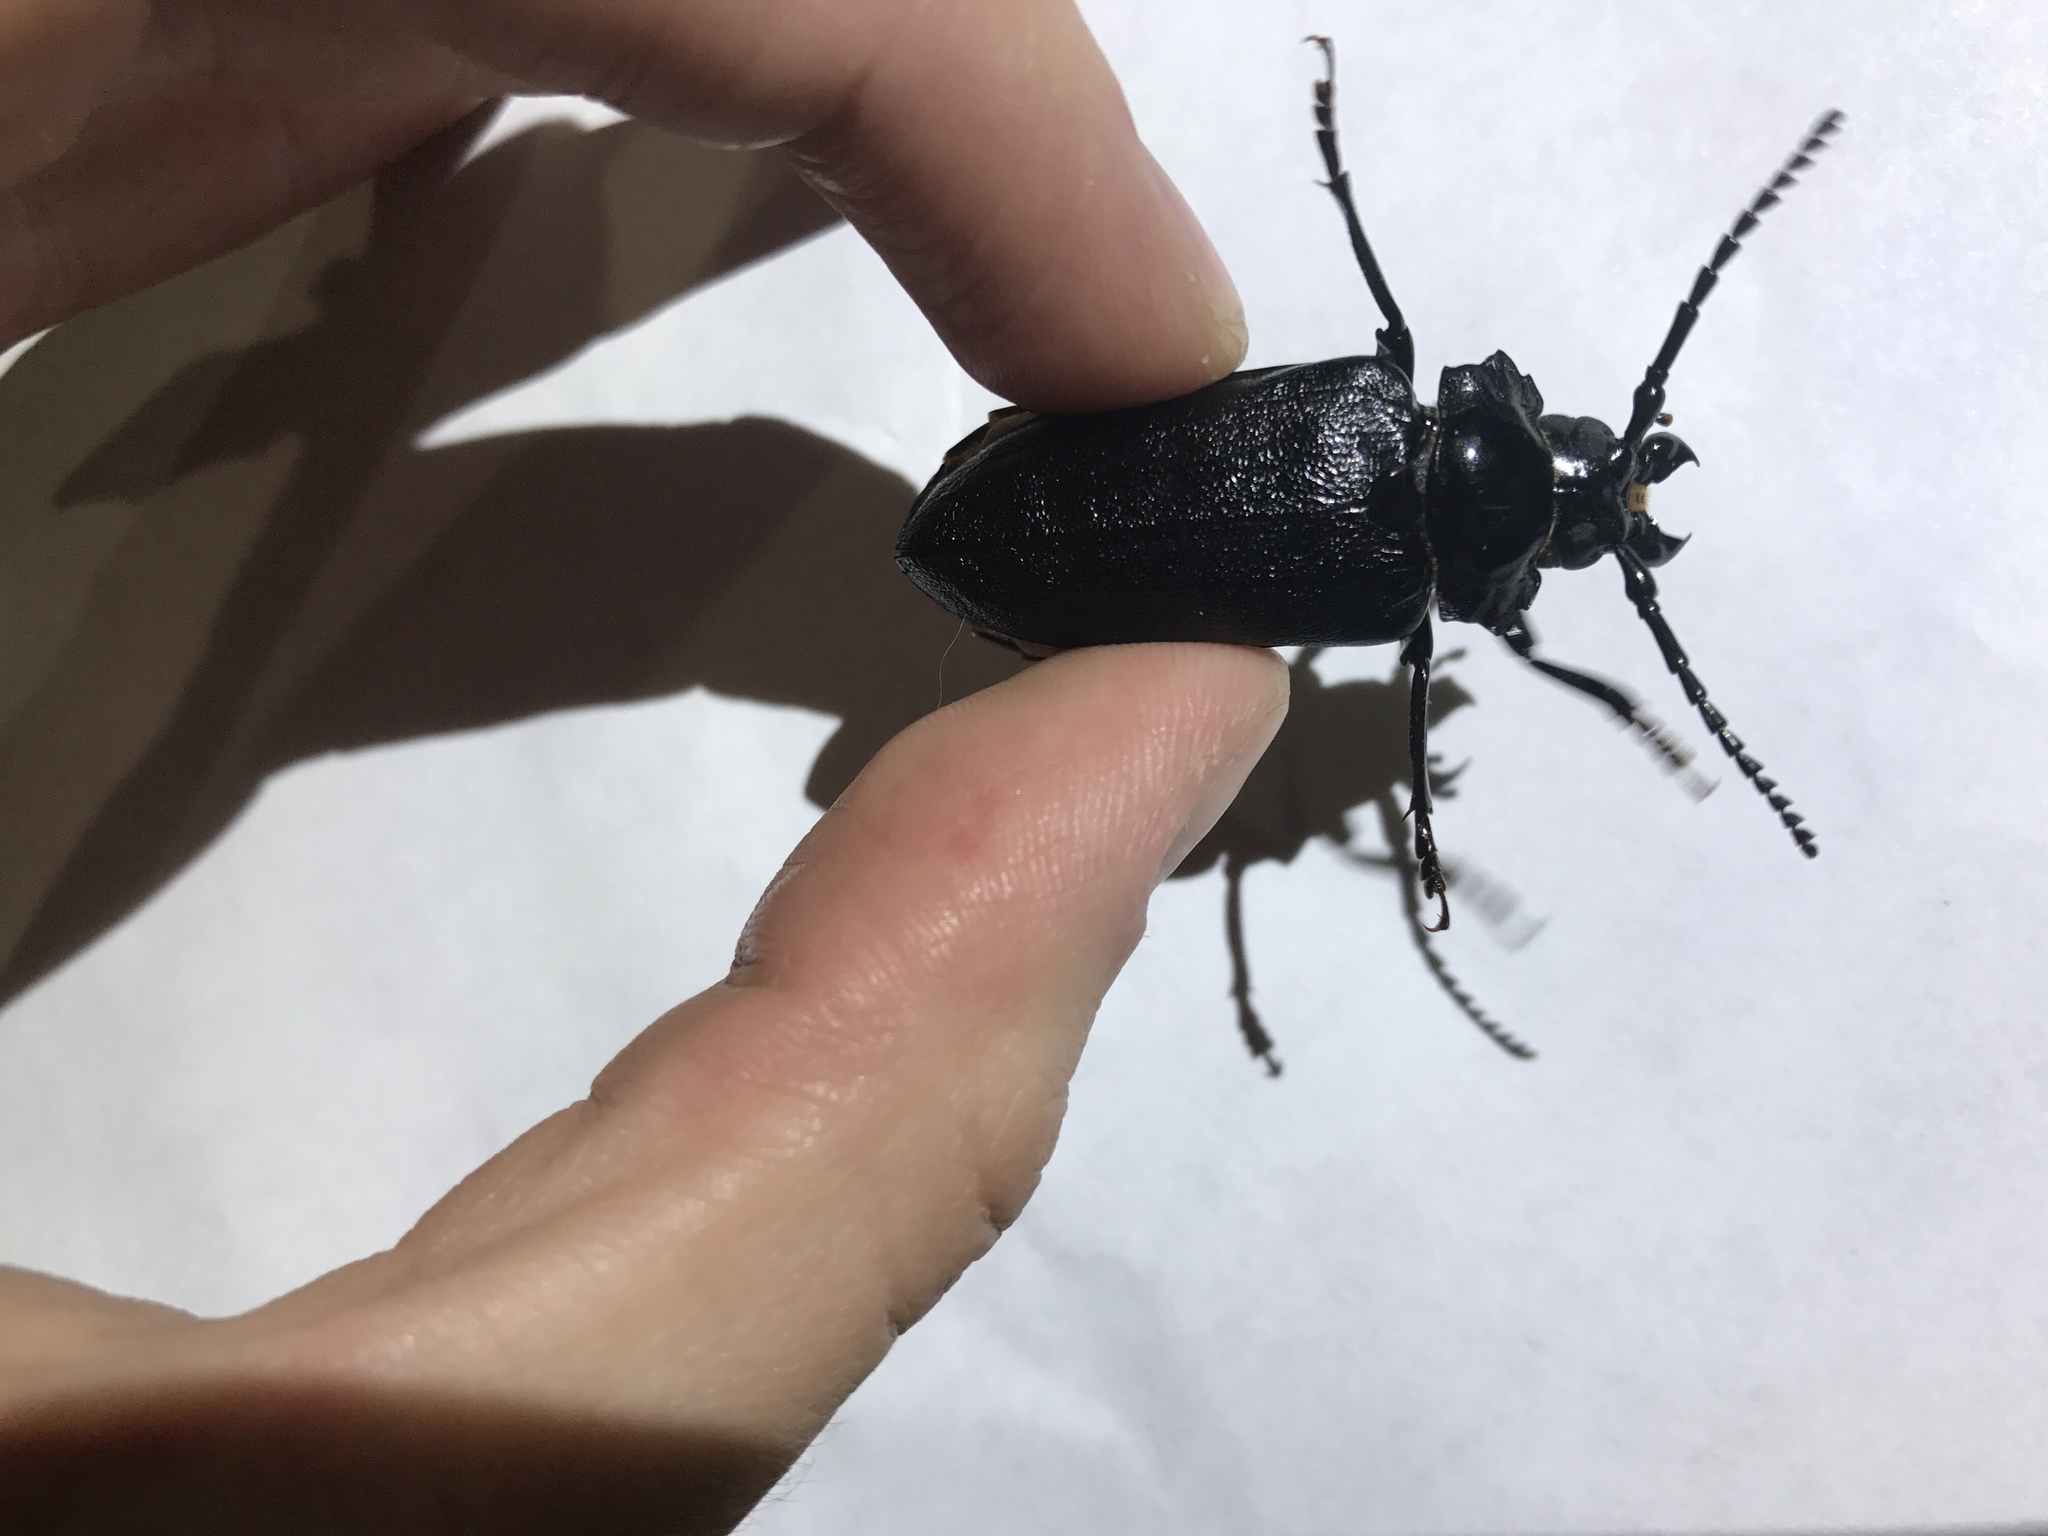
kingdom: Animalia
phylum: Arthropoda
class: Insecta
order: Coleoptera
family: Cerambycidae
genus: Prionus
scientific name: Prionus laticollis
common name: Broad necked prionus
